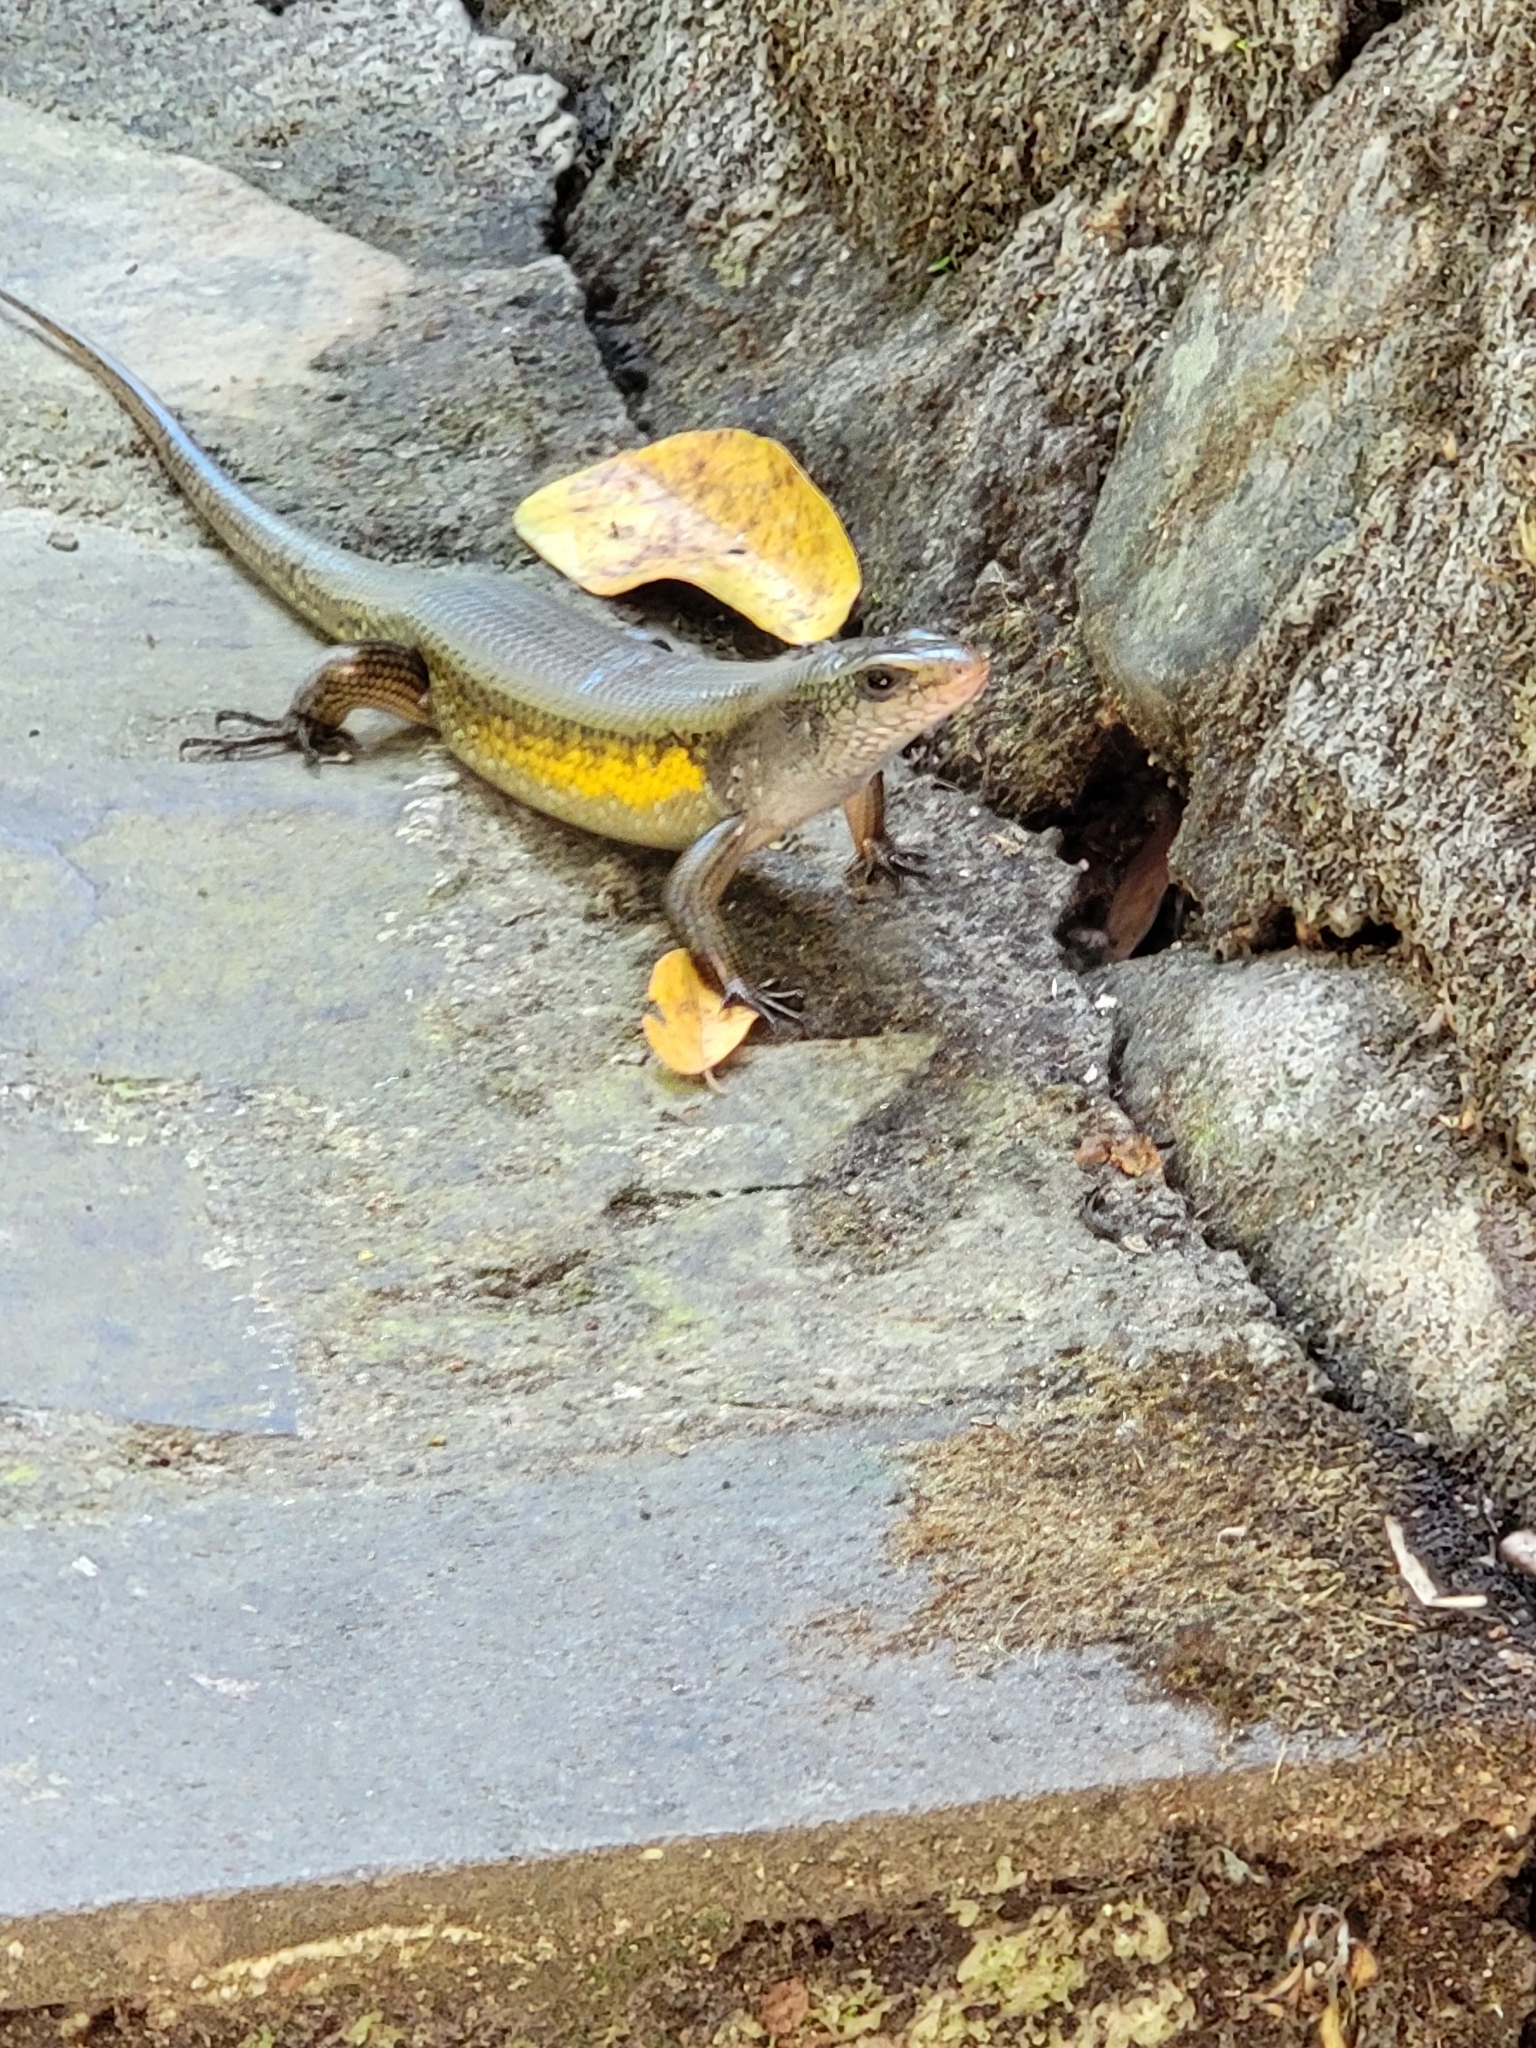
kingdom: Animalia
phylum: Chordata
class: Squamata
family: Scincidae
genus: Eutropis
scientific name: Eutropis multifasciata
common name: Common mabuya
